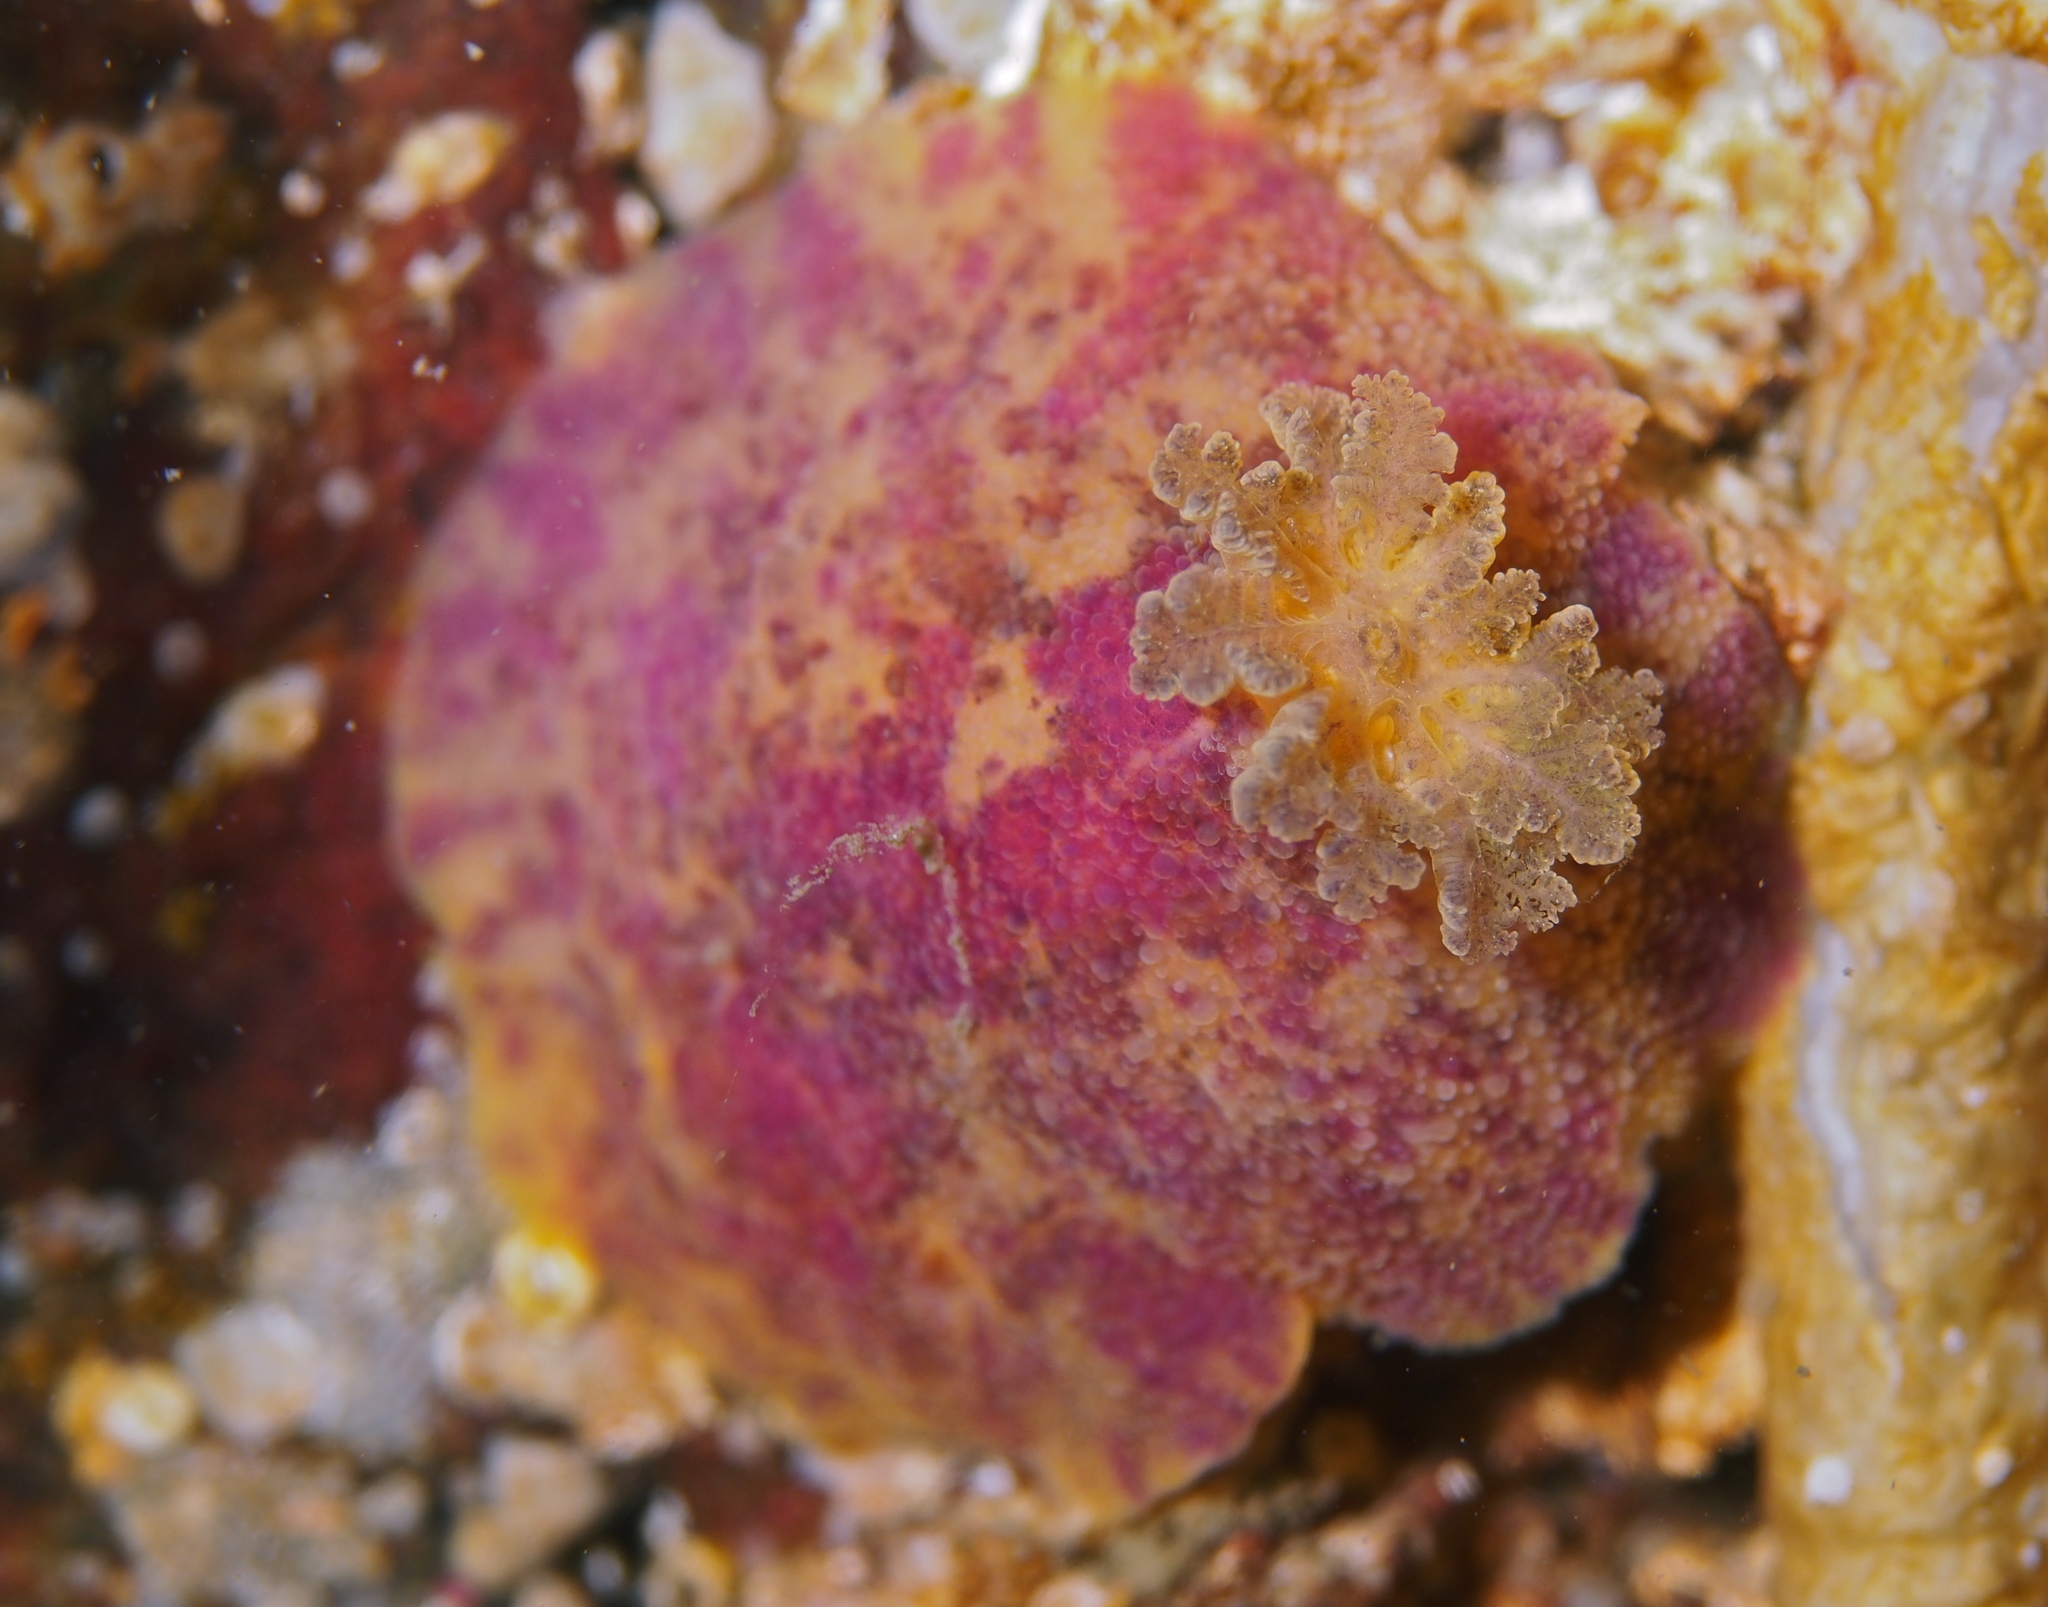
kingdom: Animalia
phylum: Mollusca
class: Gastropoda
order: Nudibranchia
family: Dorididae
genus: Doris
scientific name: Doris pseudoargus
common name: Sea lemon
